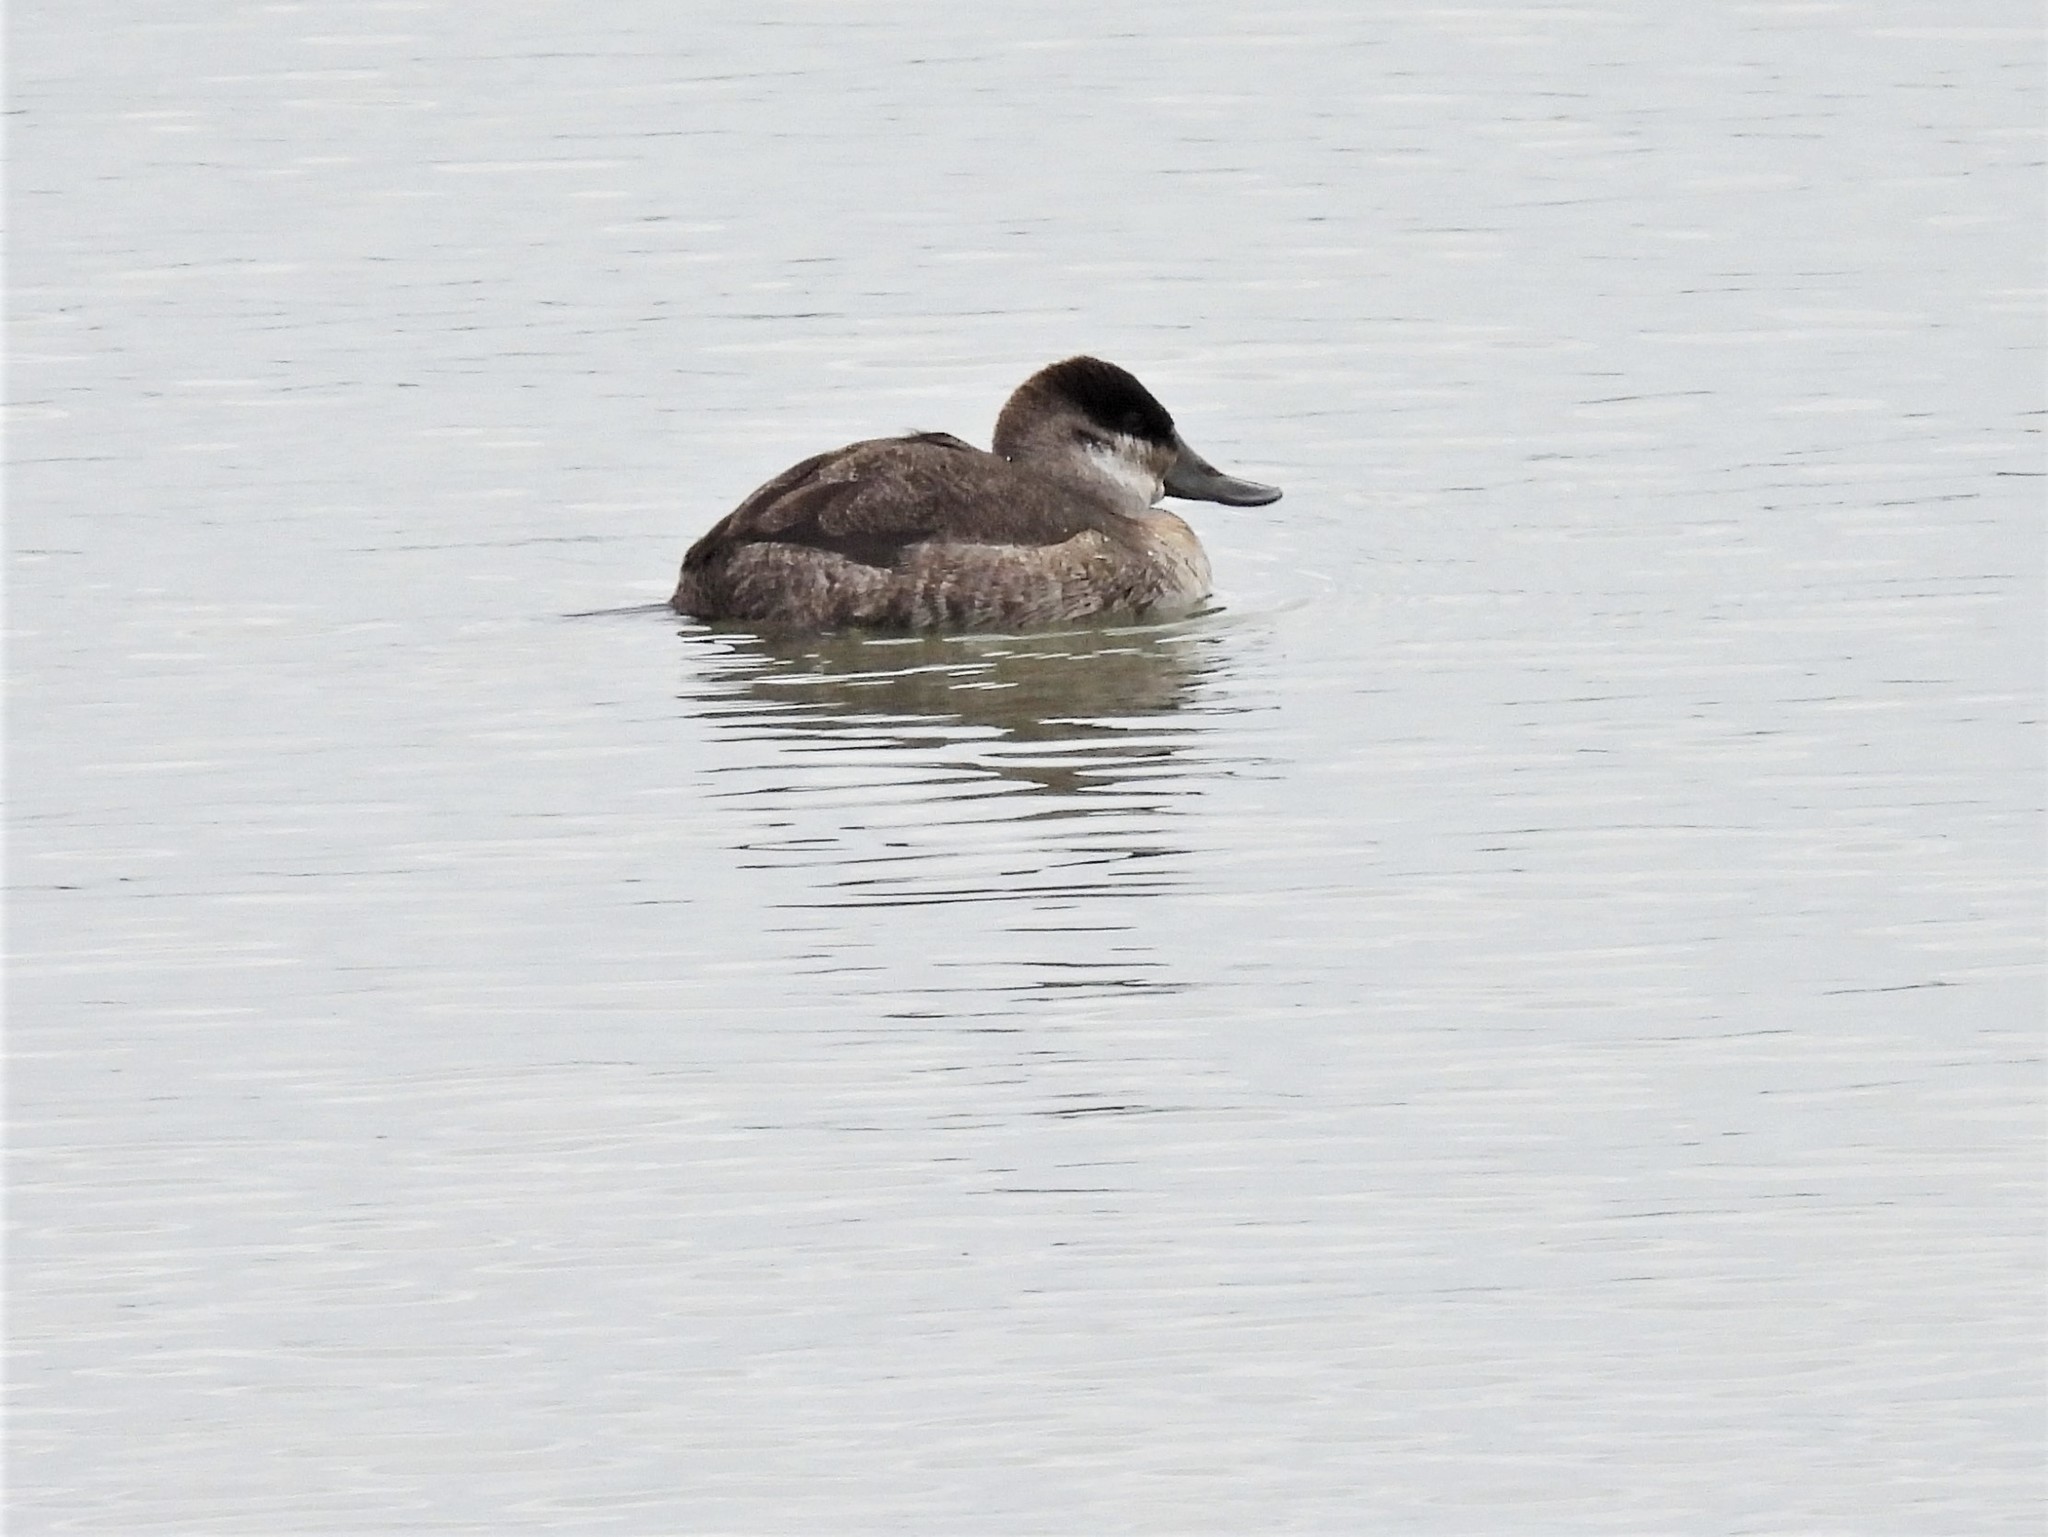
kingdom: Animalia
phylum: Chordata
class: Aves
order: Anseriformes
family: Anatidae
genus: Oxyura
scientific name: Oxyura jamaicensis
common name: Ruddy duck
